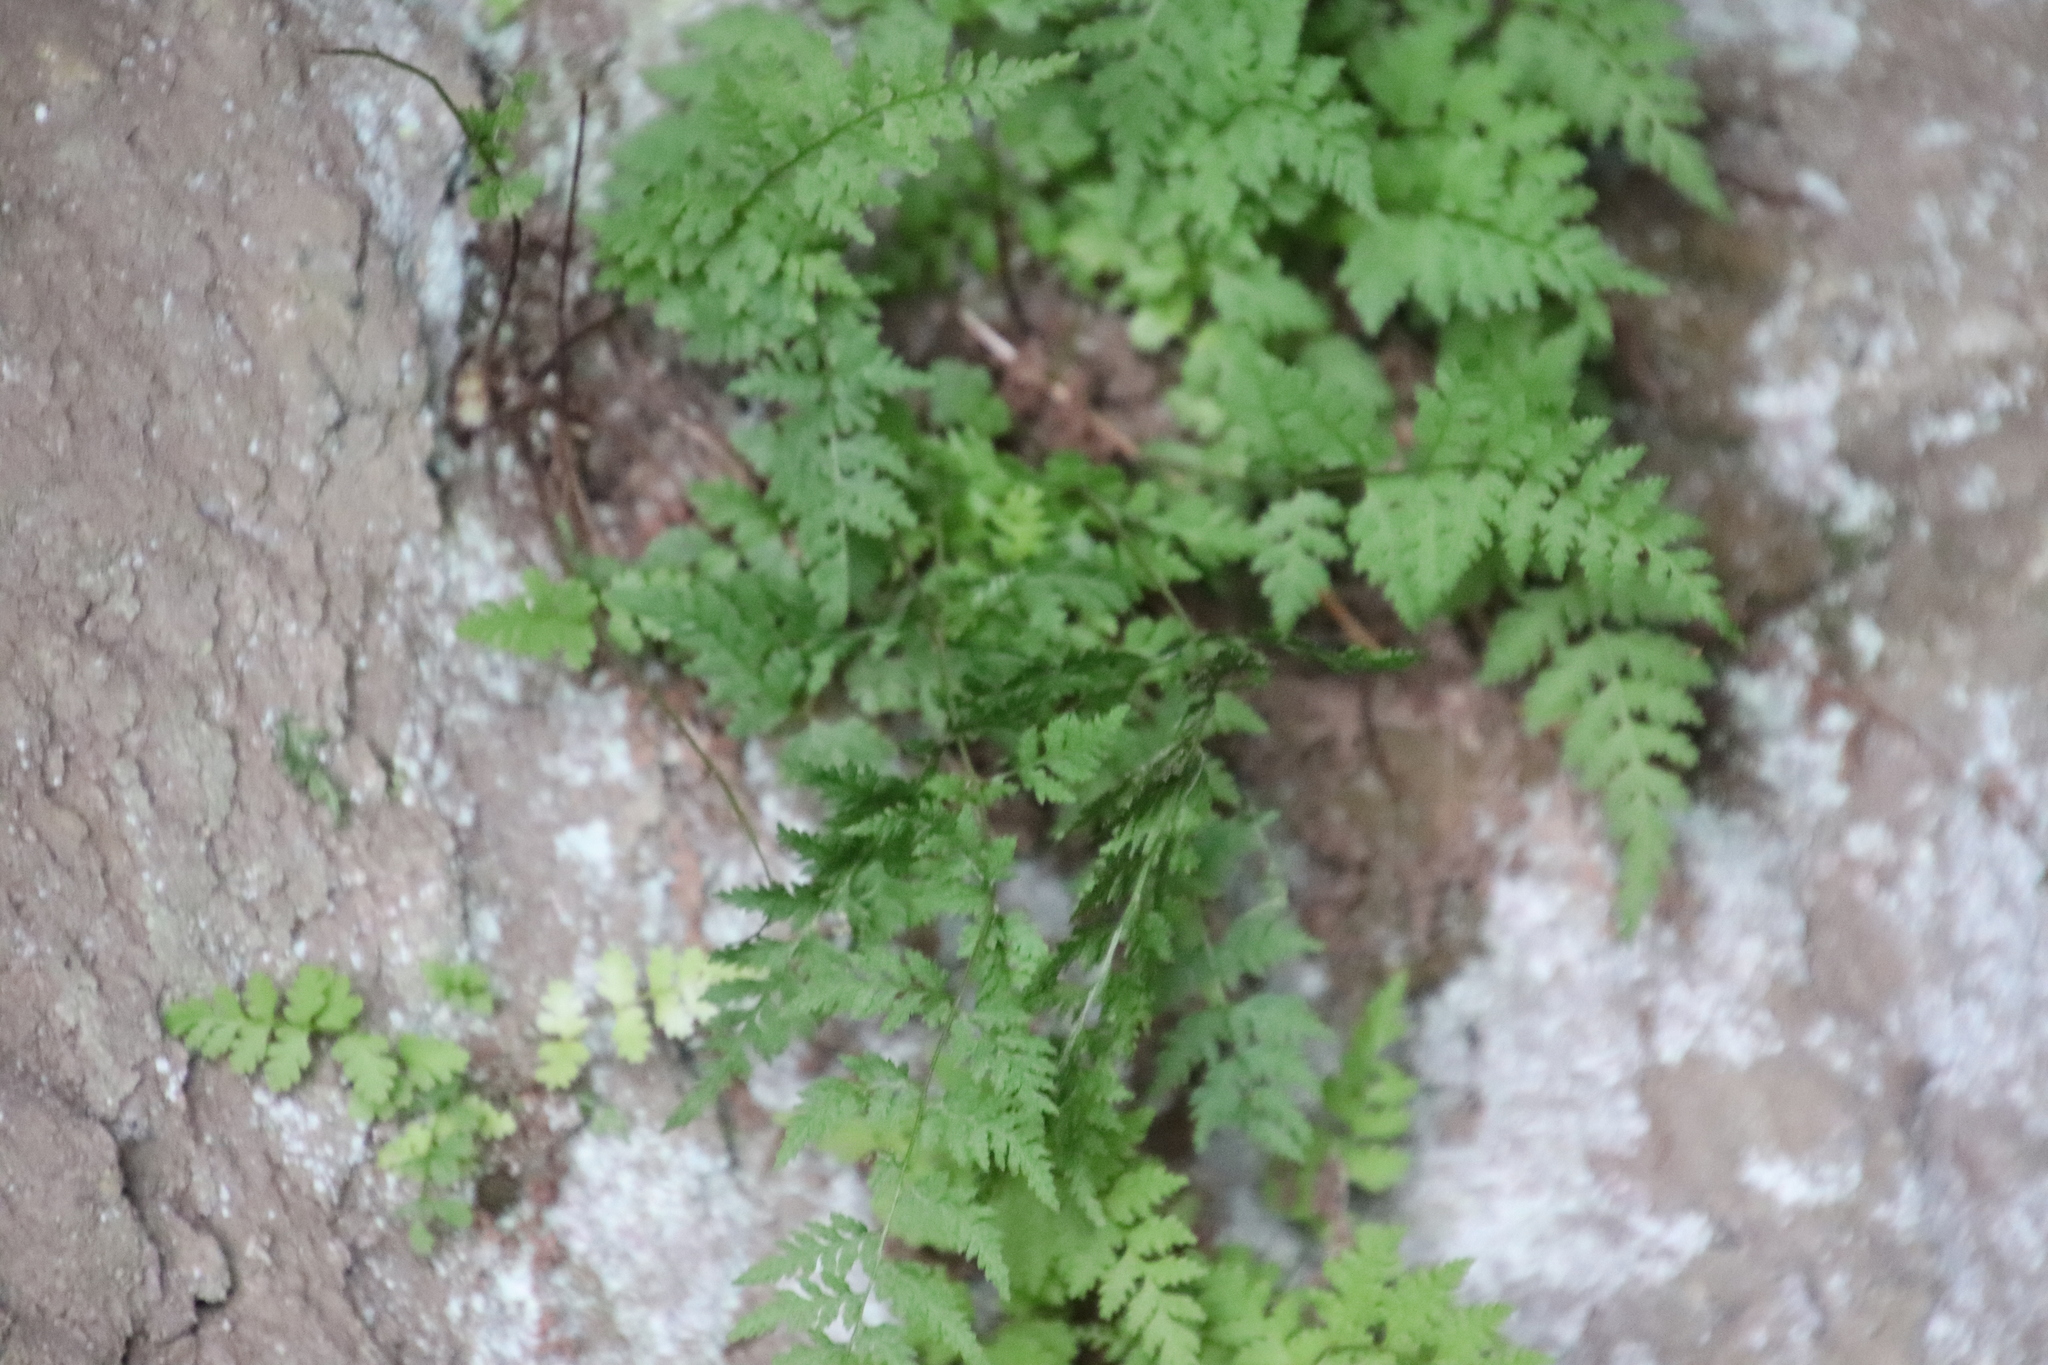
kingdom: Plantae
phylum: Tracheophyta
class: Polypodiopsida
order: Polypodiales
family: Cystopteridaceae
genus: Cystopteris
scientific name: Cystopteris fragilis
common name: Brittle bladder fern
